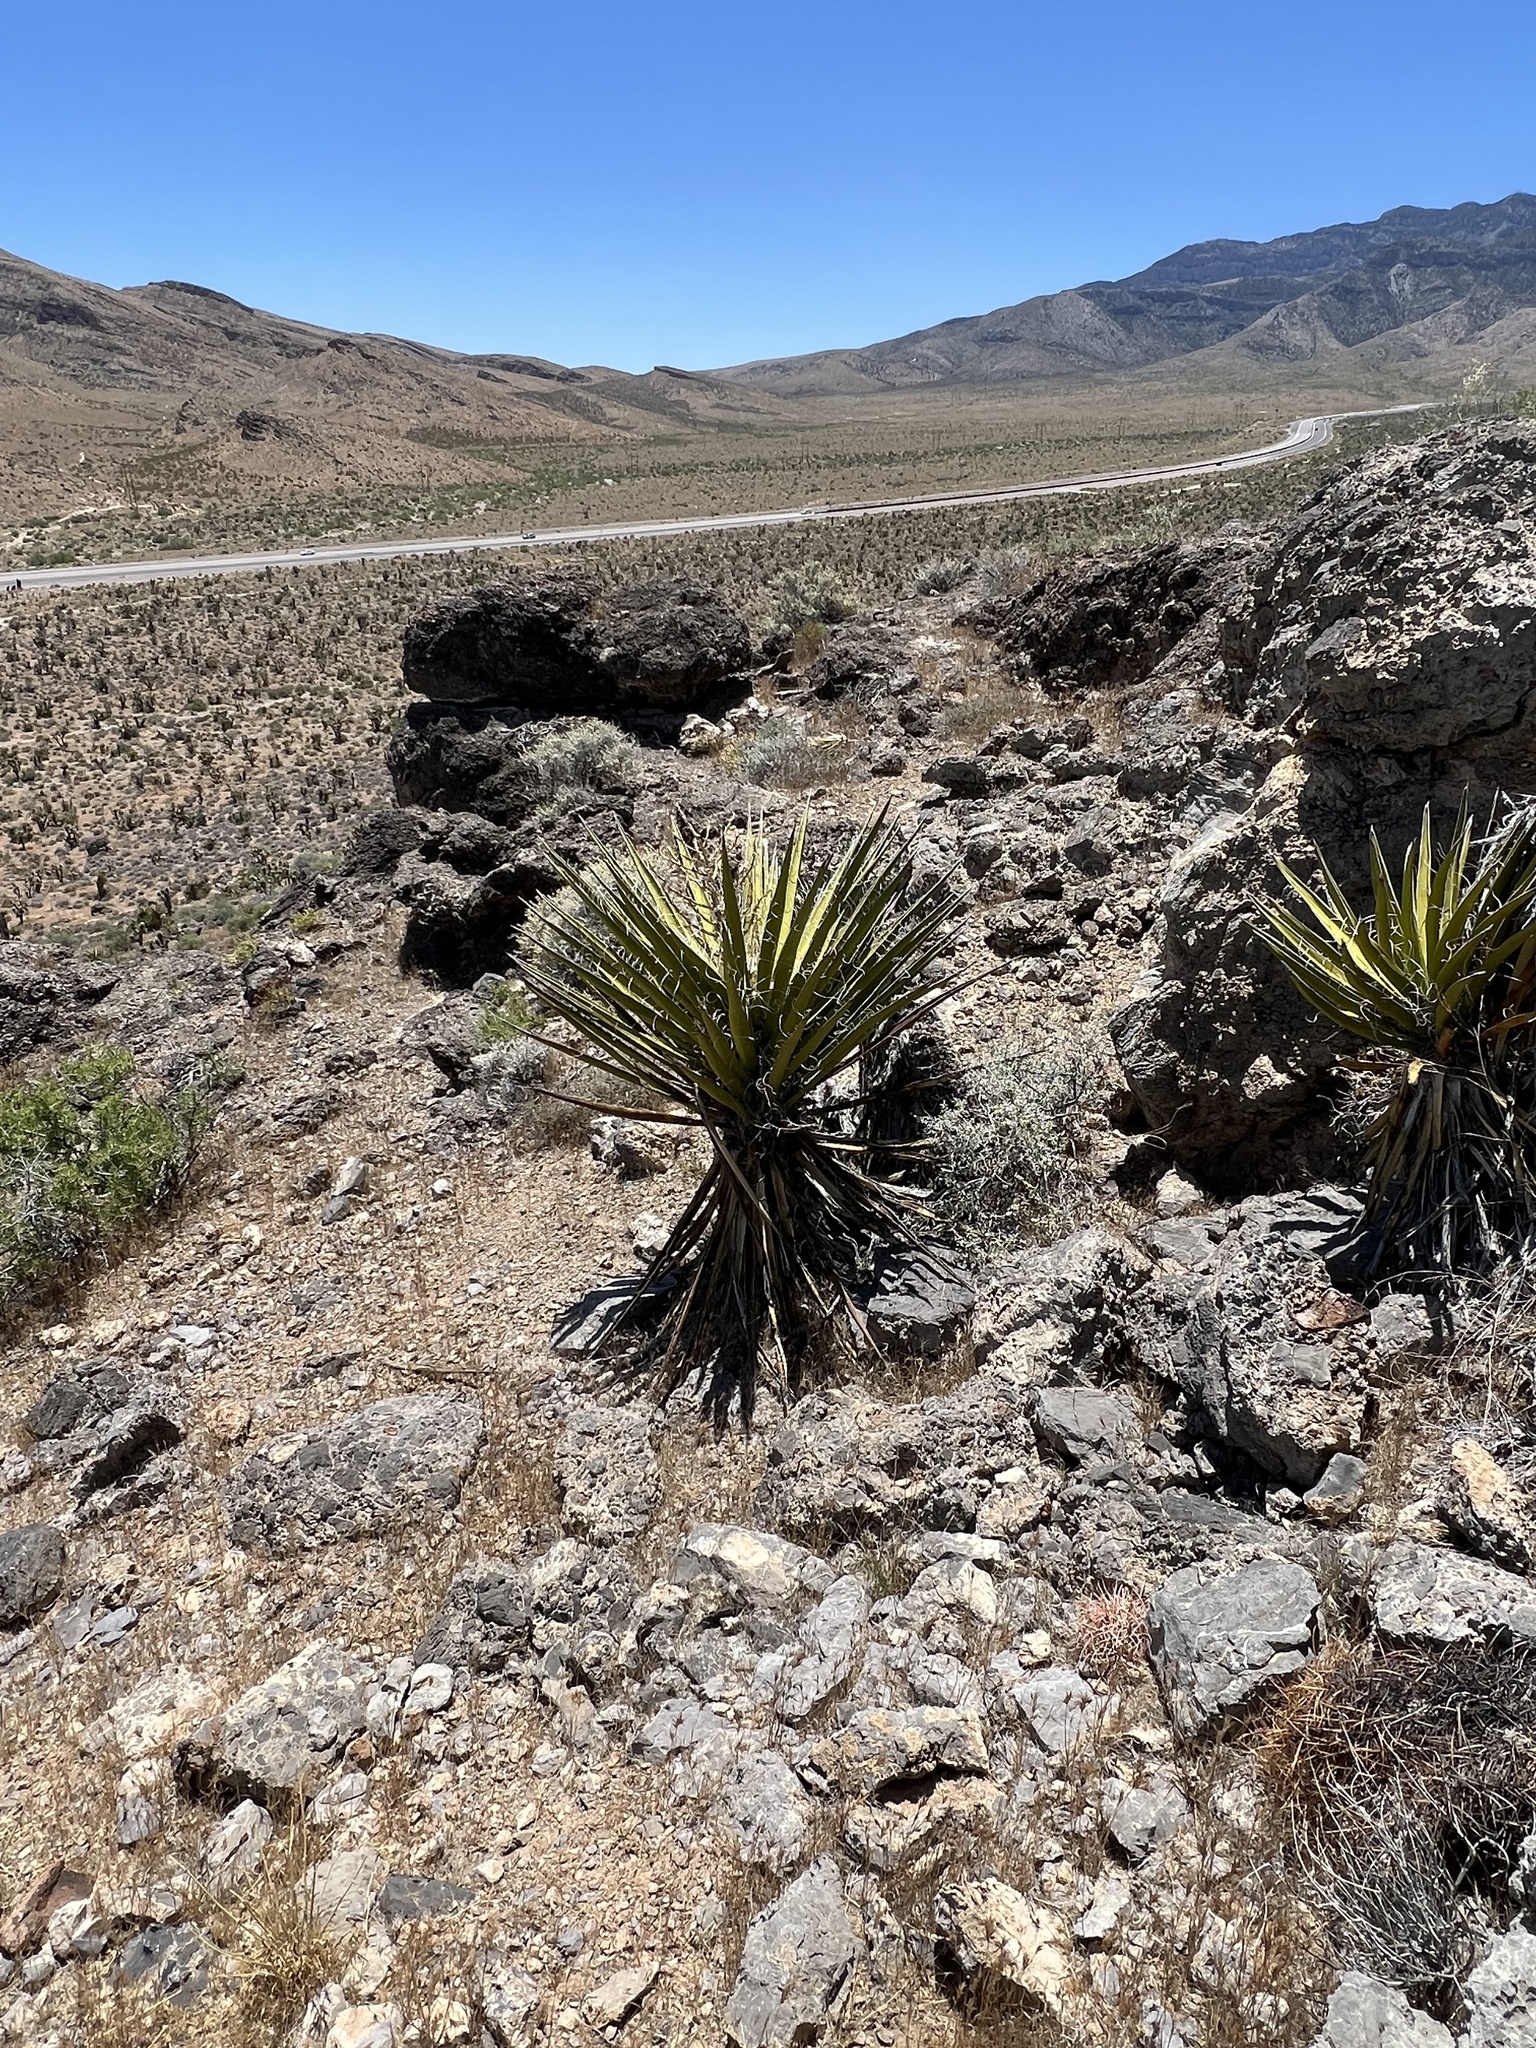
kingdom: Plantae
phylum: Tracheophyta
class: Liliopsida
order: Asparagales
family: Asparagaceae
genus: Yucca
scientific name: Yucca schidigera
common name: Mojave yucca
